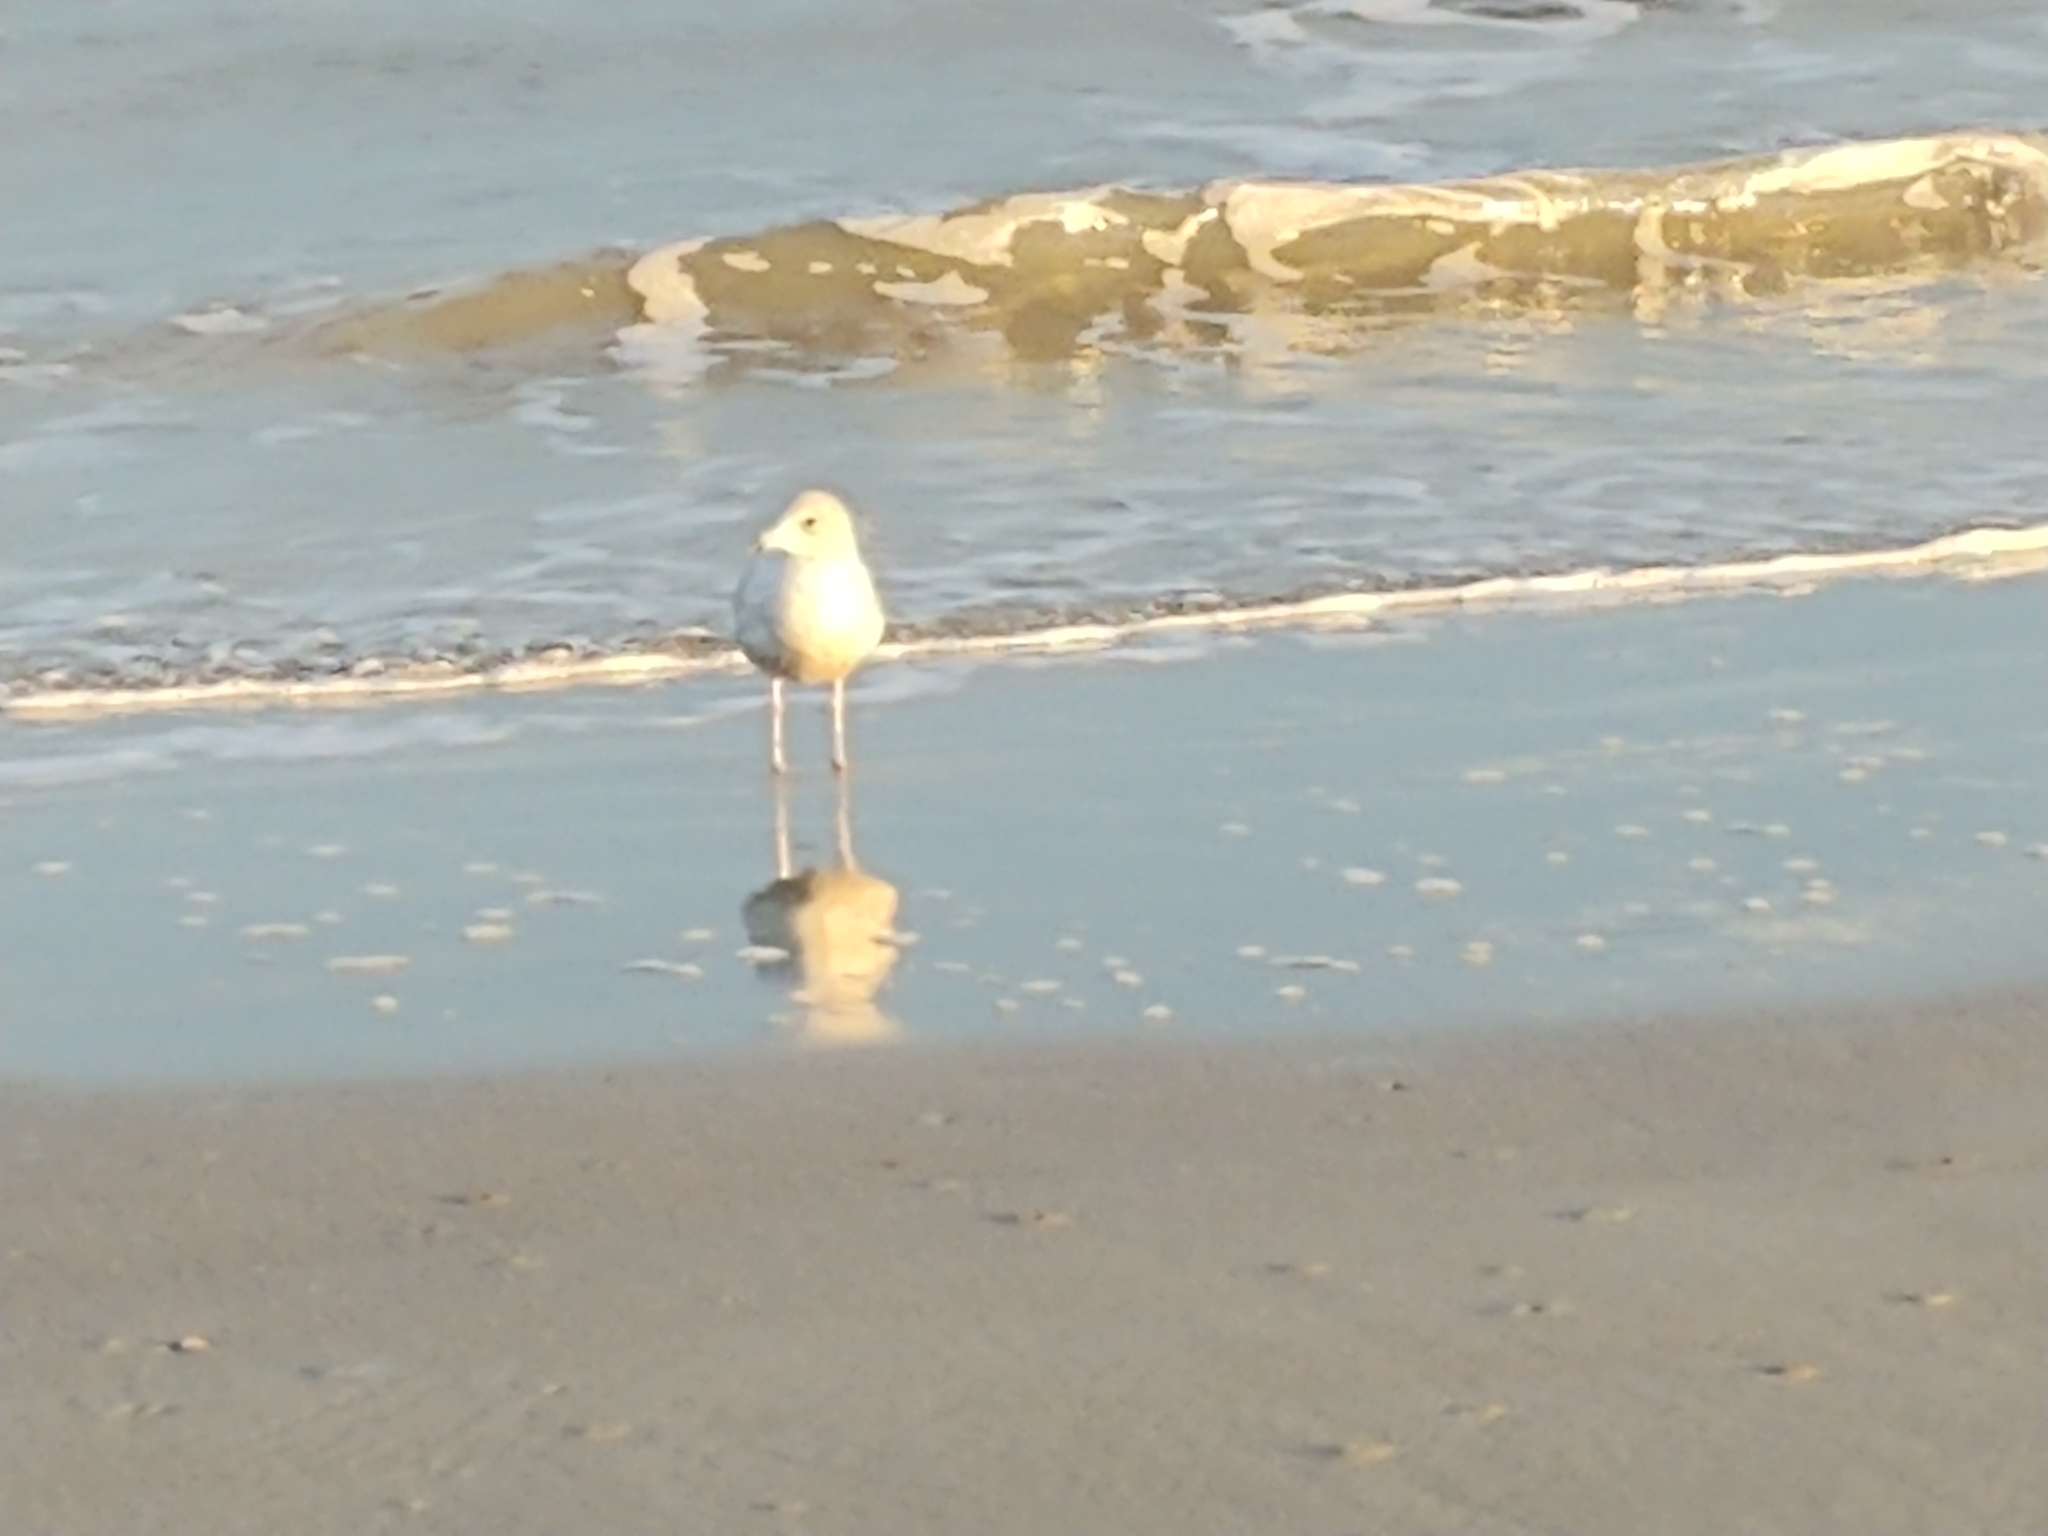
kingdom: Animalia
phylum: Chordata
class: Aves
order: Charadriiformes
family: Laridae
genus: Larus
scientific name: Larus delawarensis
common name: Ring-billed gull
